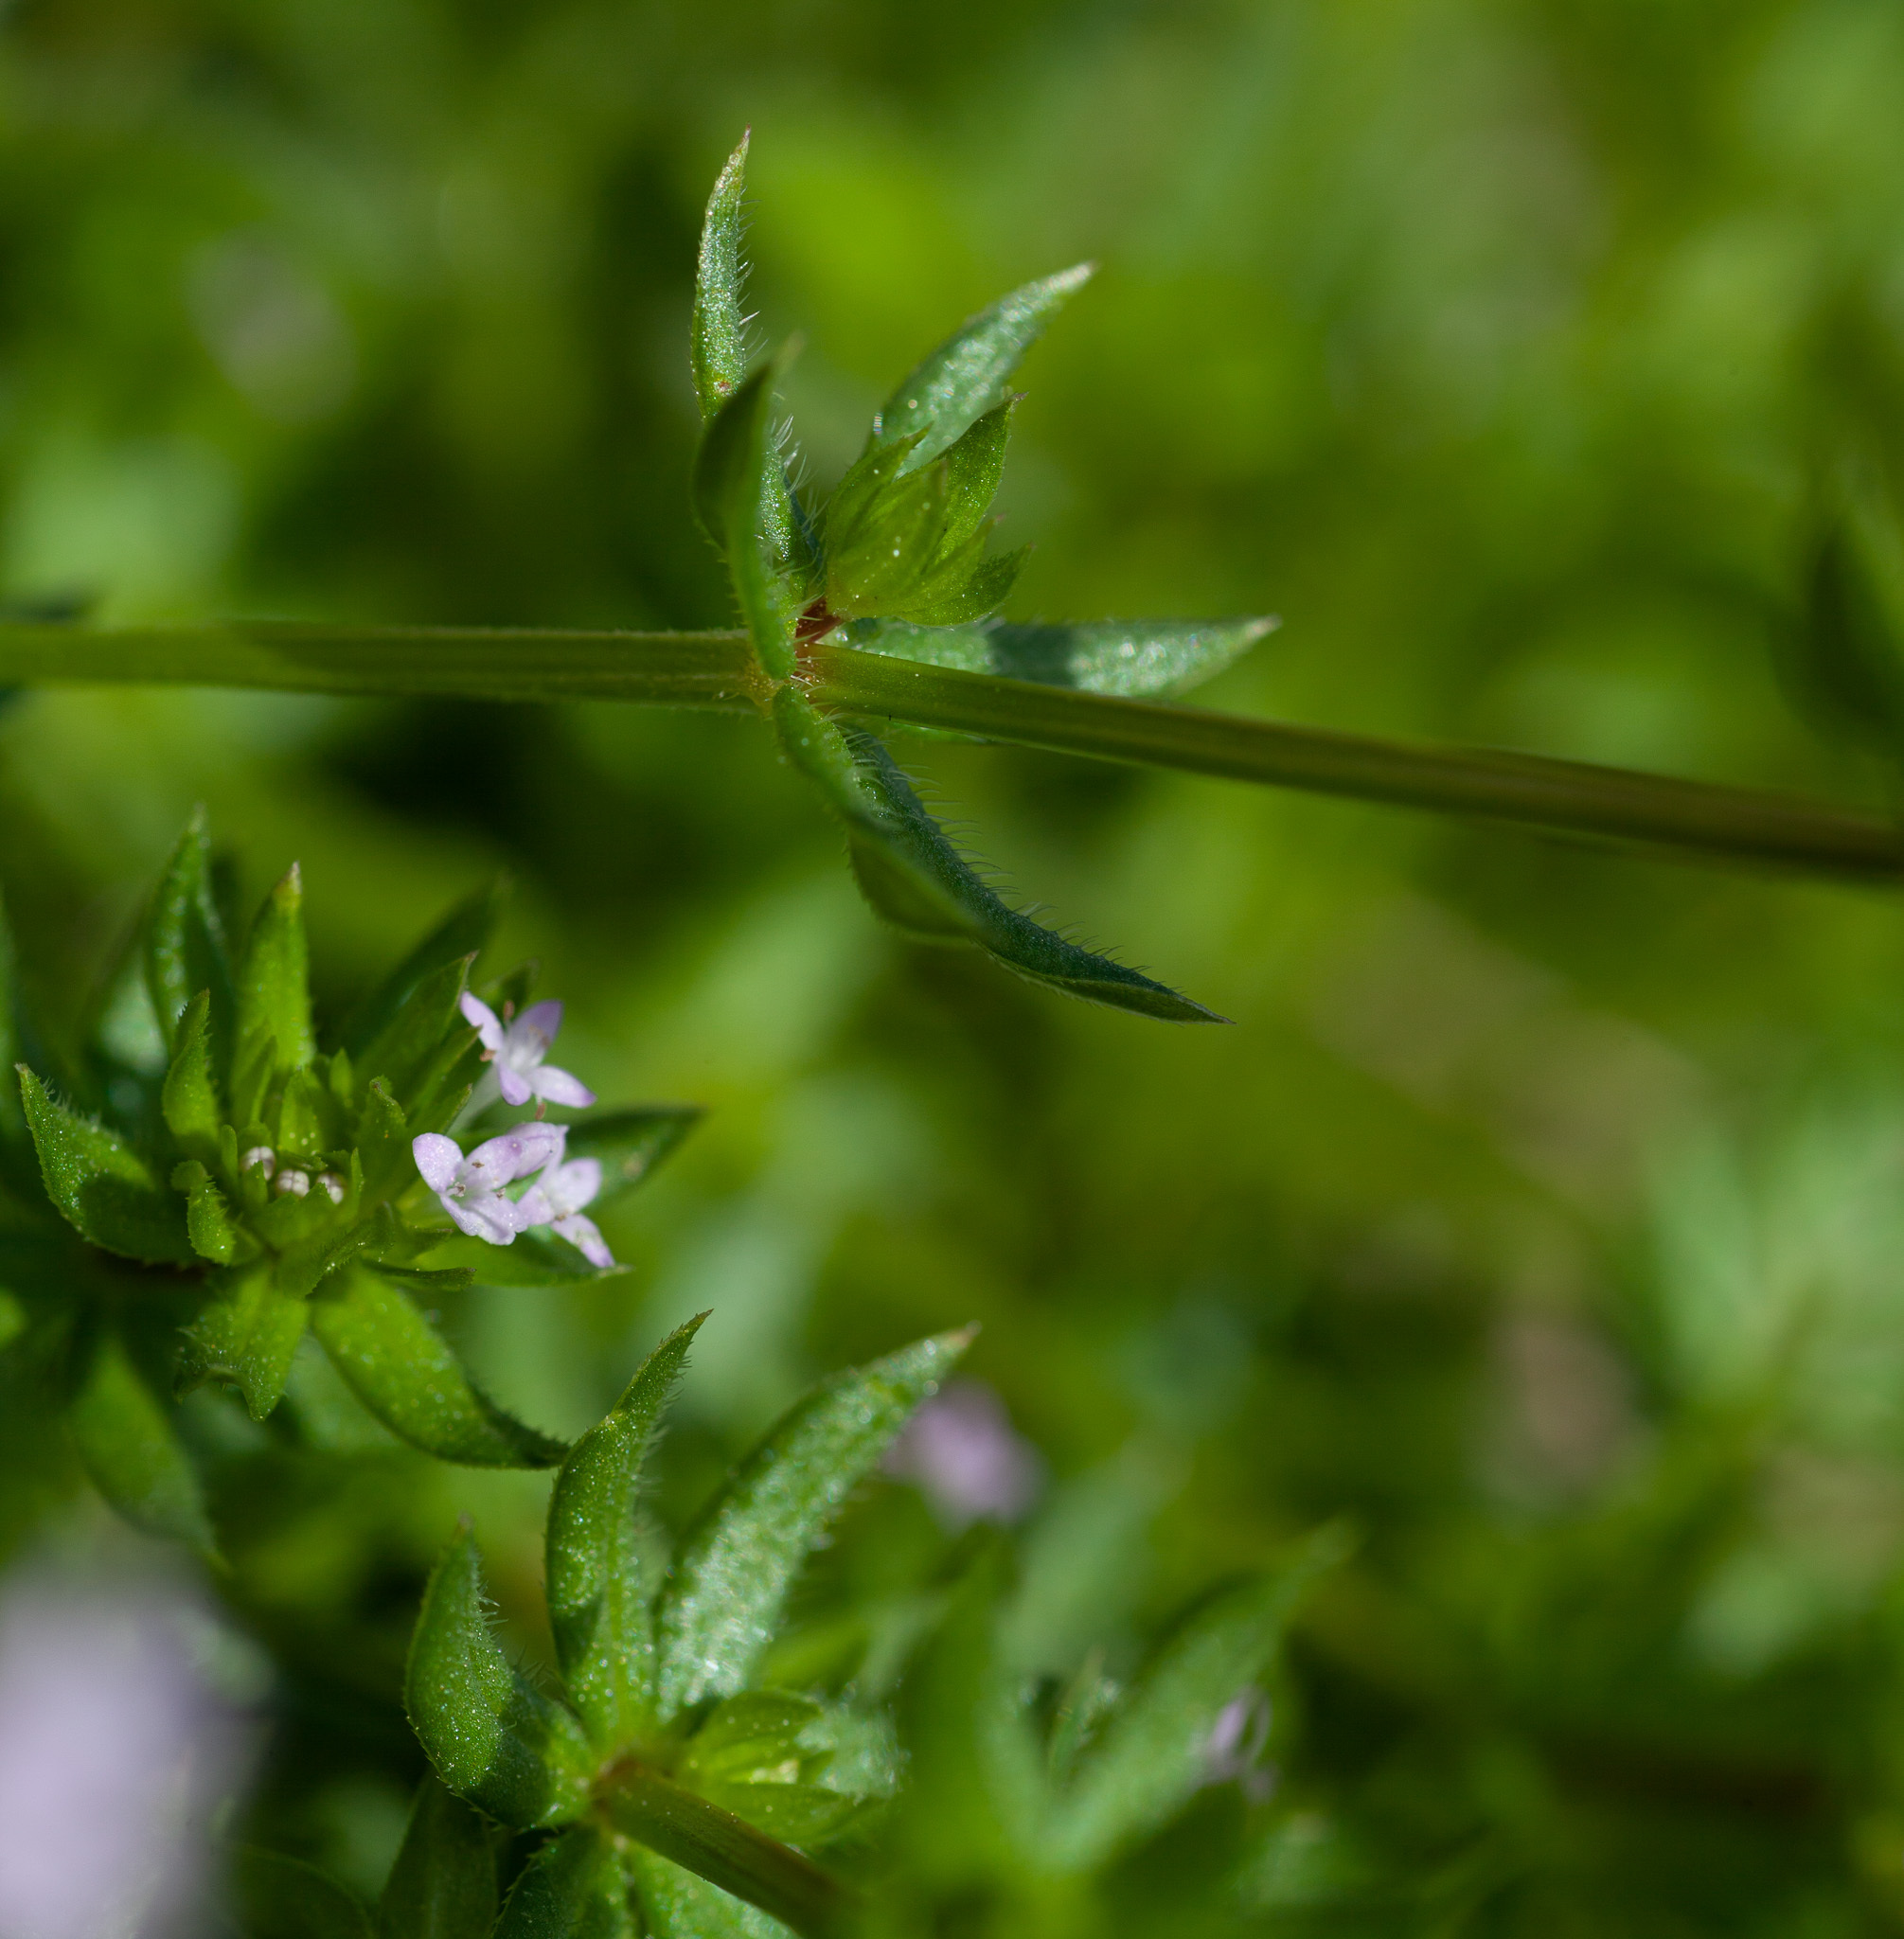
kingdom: Plantae
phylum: Tracheophyta
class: Magnoliopsida
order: Gentianales
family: Rubiaceae
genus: Sherardia
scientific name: Sherardia arvensis
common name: Field madder
